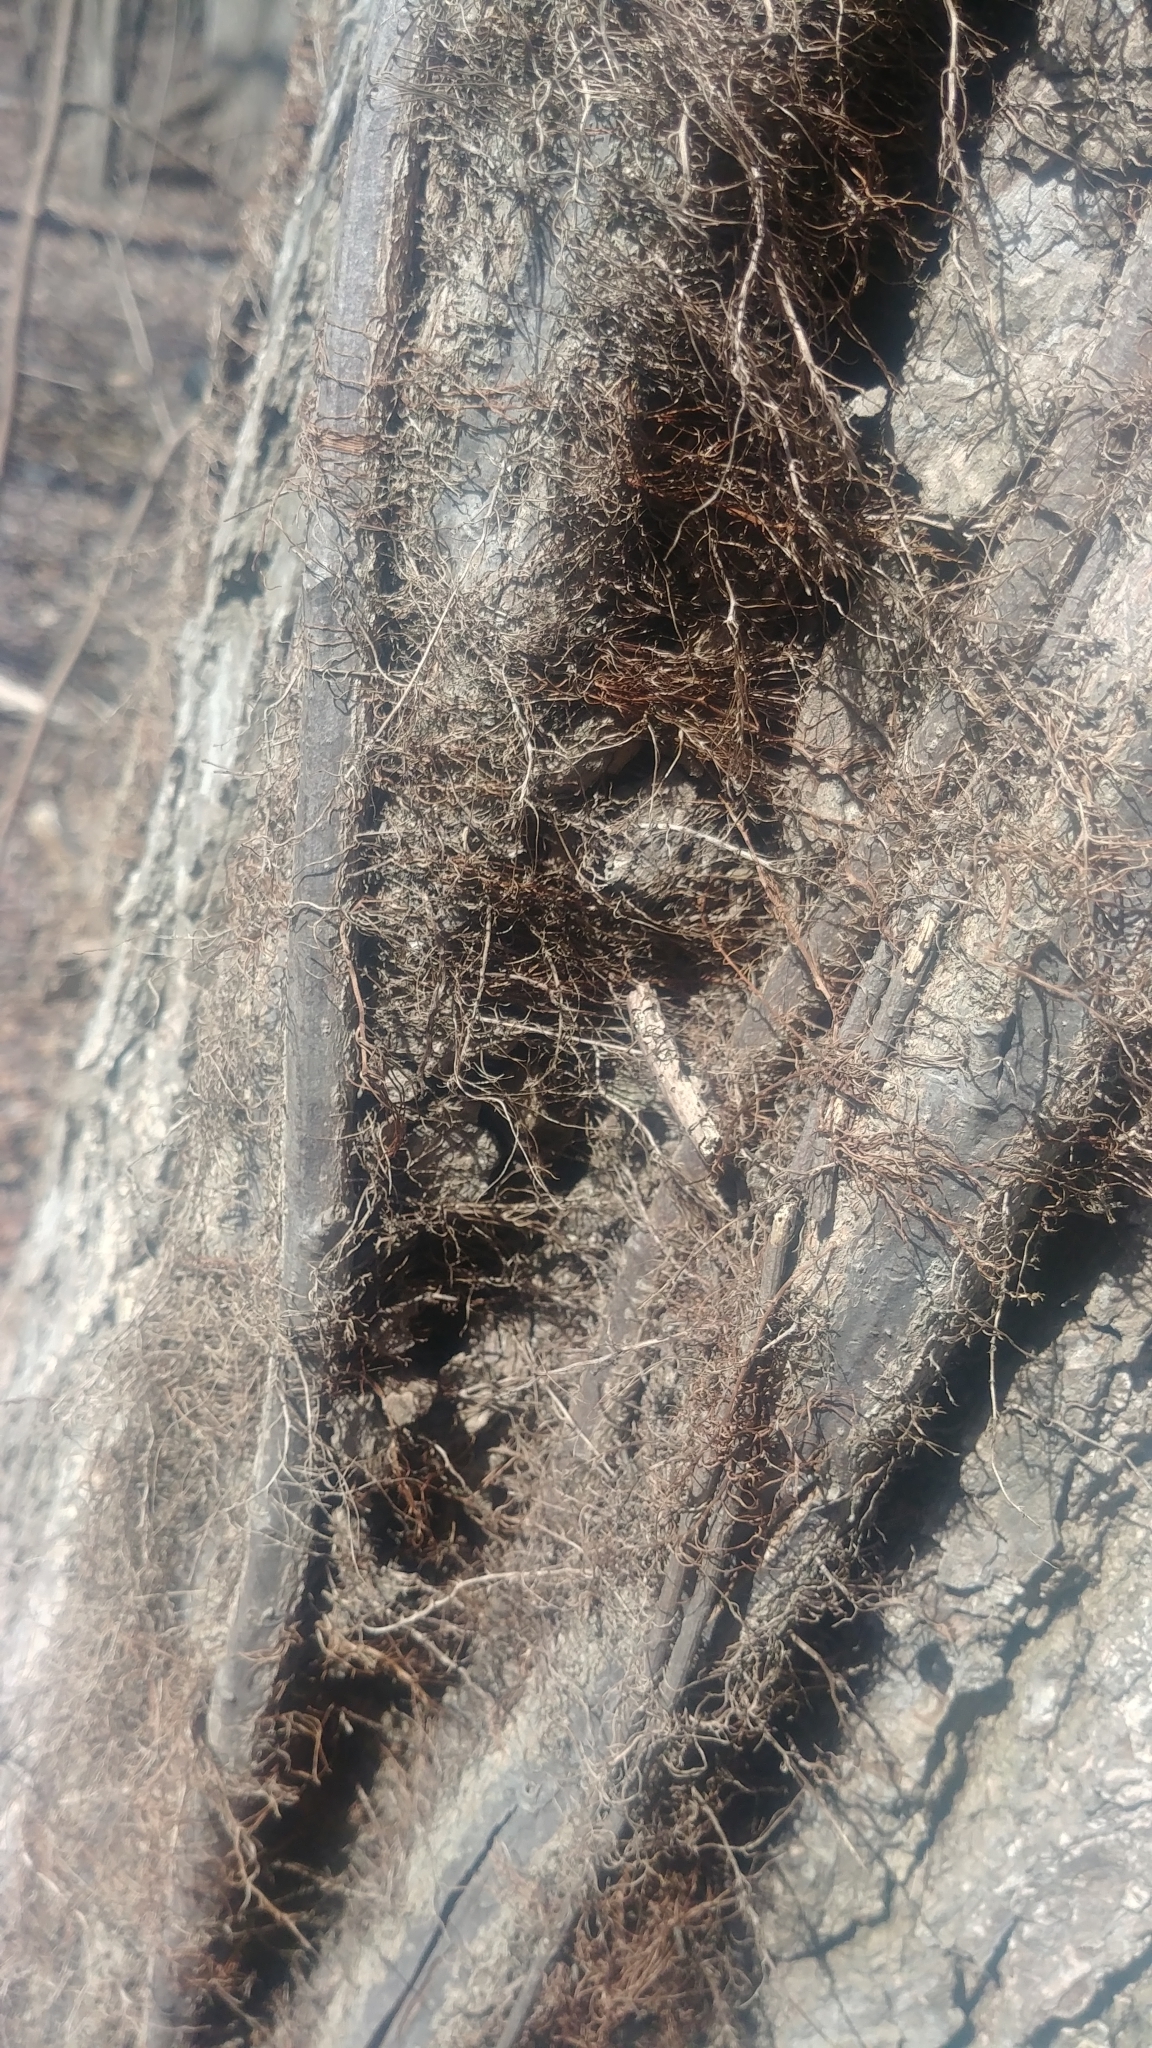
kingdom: Plantae
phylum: Tracheophyta
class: Magnoliopsida
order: Sapindales
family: Anacardiaceae
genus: Toxicodendron
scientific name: Toxicodendron radicans
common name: Poison ivy
